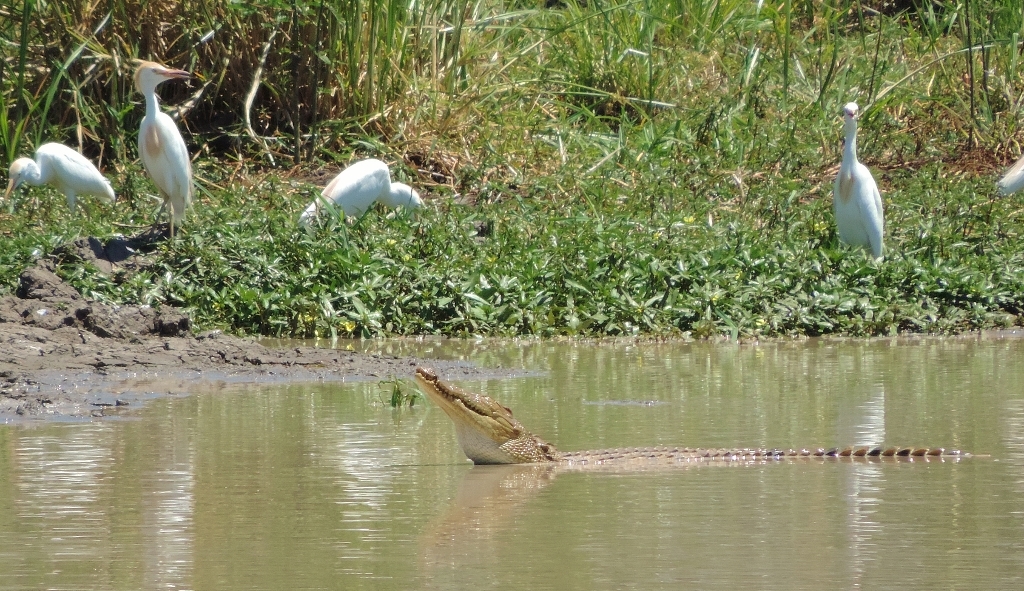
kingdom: Animalia
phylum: Chordata
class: Crocodylia
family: Crocodylidae
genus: Crocodylus
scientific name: Crocodylus niloticus
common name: Nile crocodile
